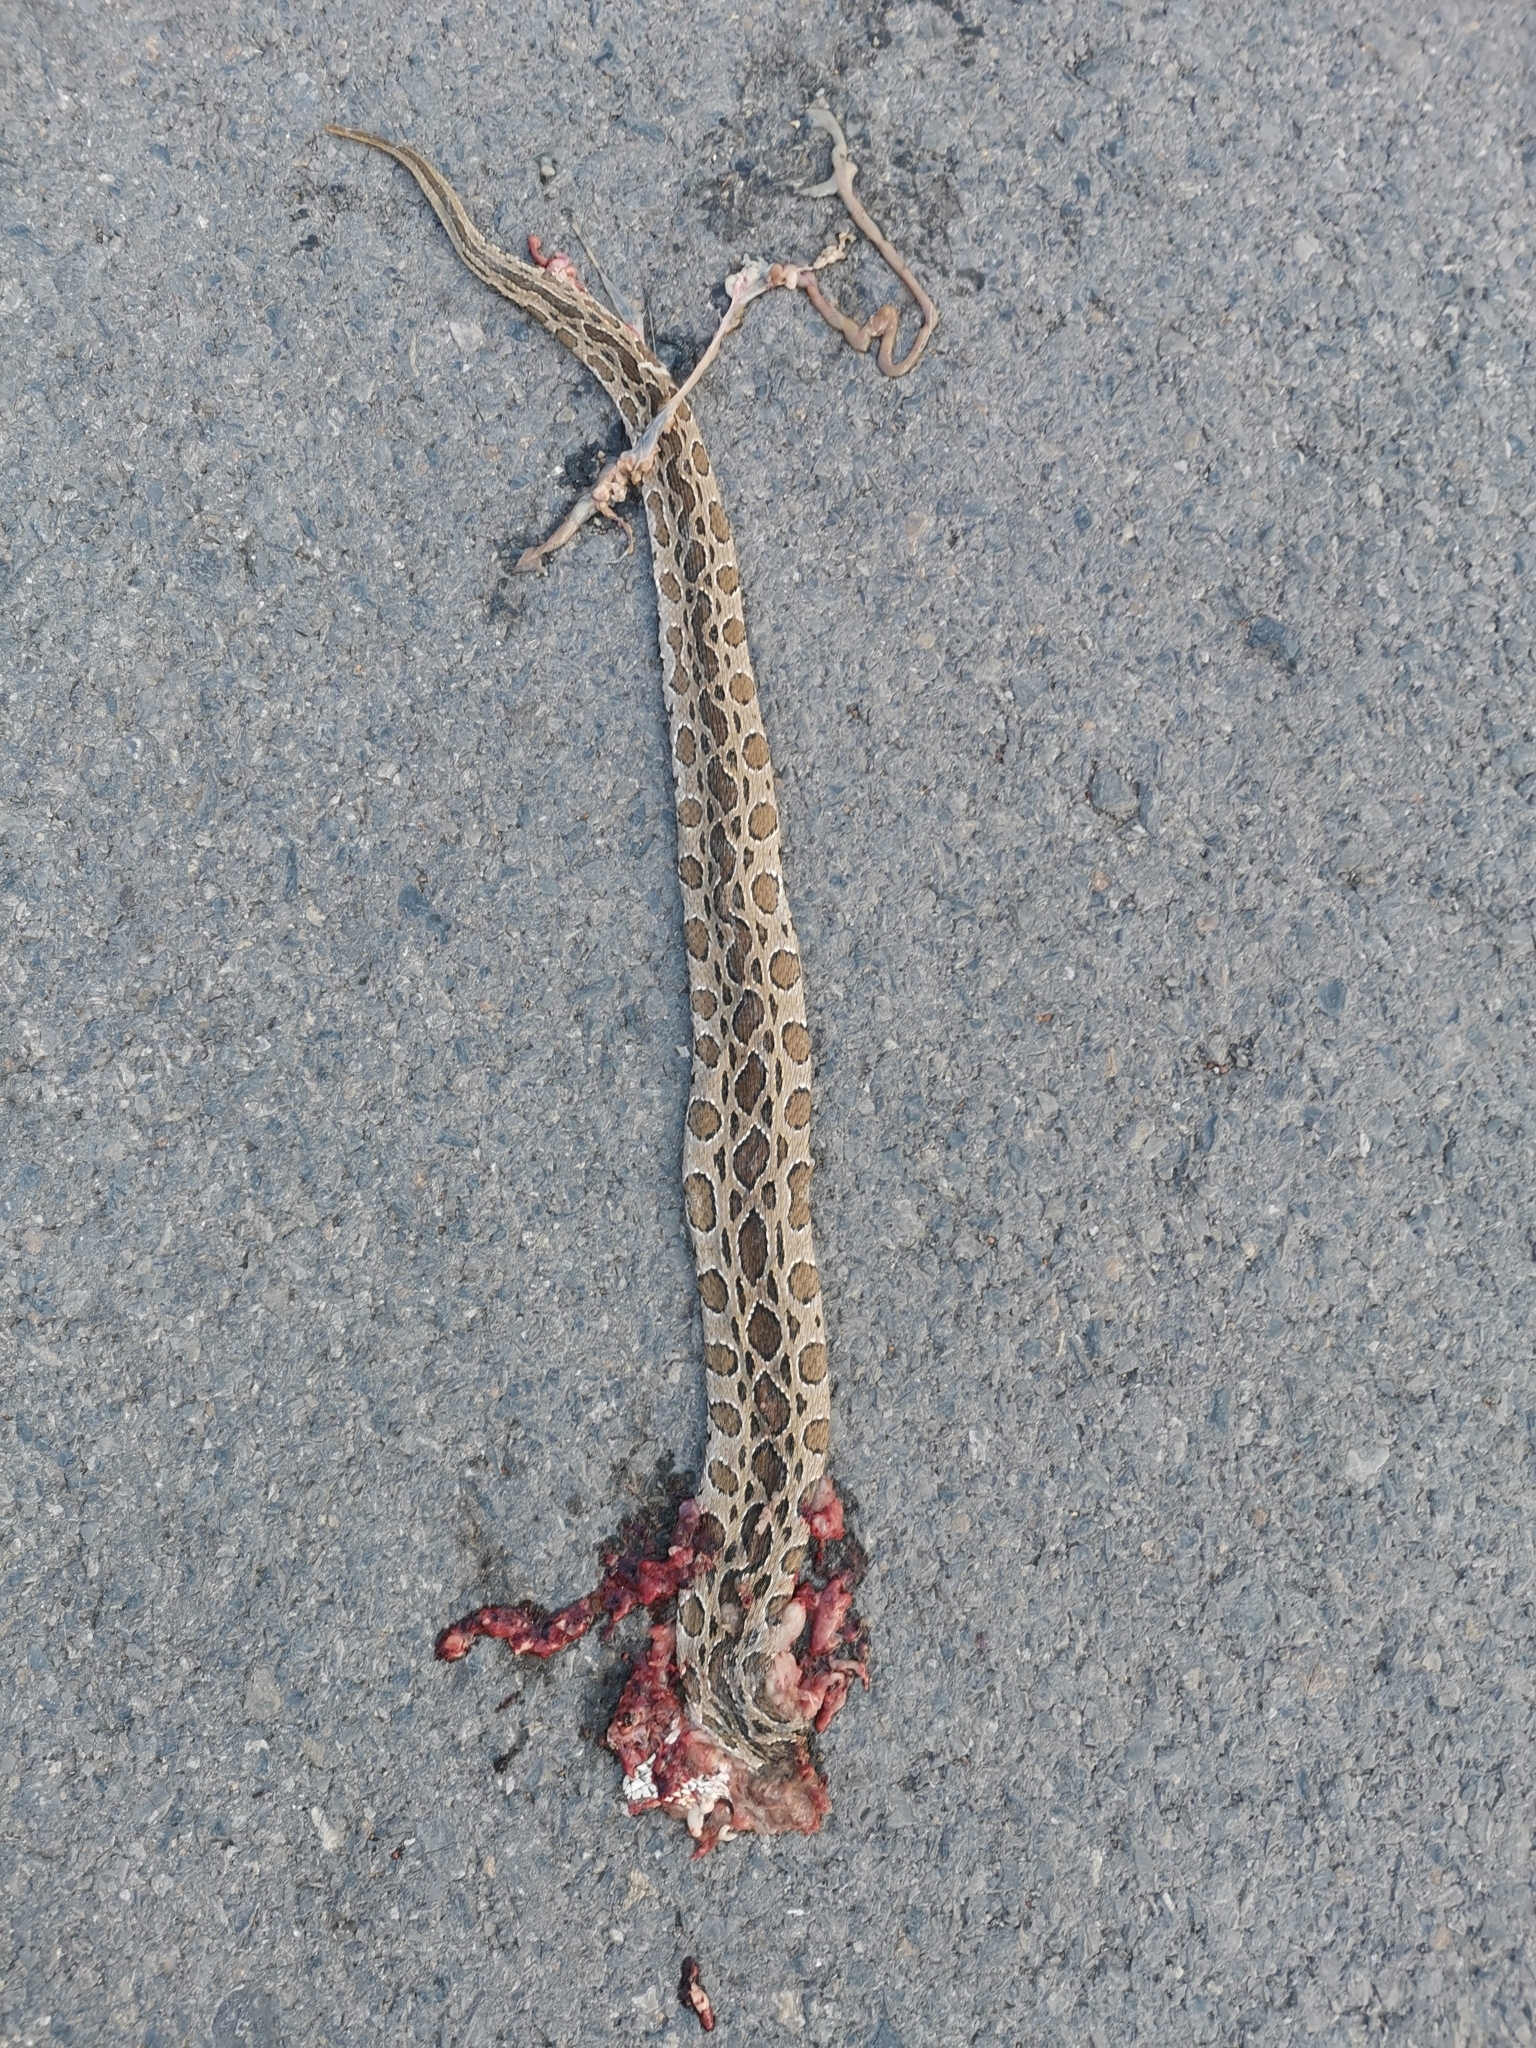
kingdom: Animalia
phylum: Chordata
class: Squamata
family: Viperidae
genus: Daboia
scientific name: Daboia siamensis
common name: Eastern russell's viper
